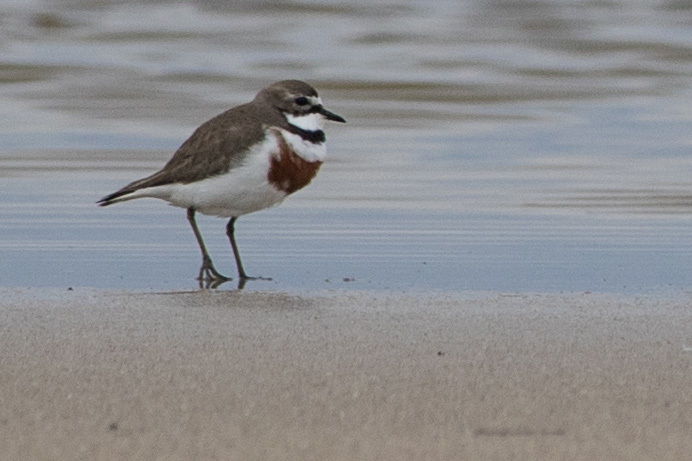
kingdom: Animalia
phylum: Chordata
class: Aves
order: Charadriiformes
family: Charadriidae
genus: Anarhynchus
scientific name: Anarhynchus
